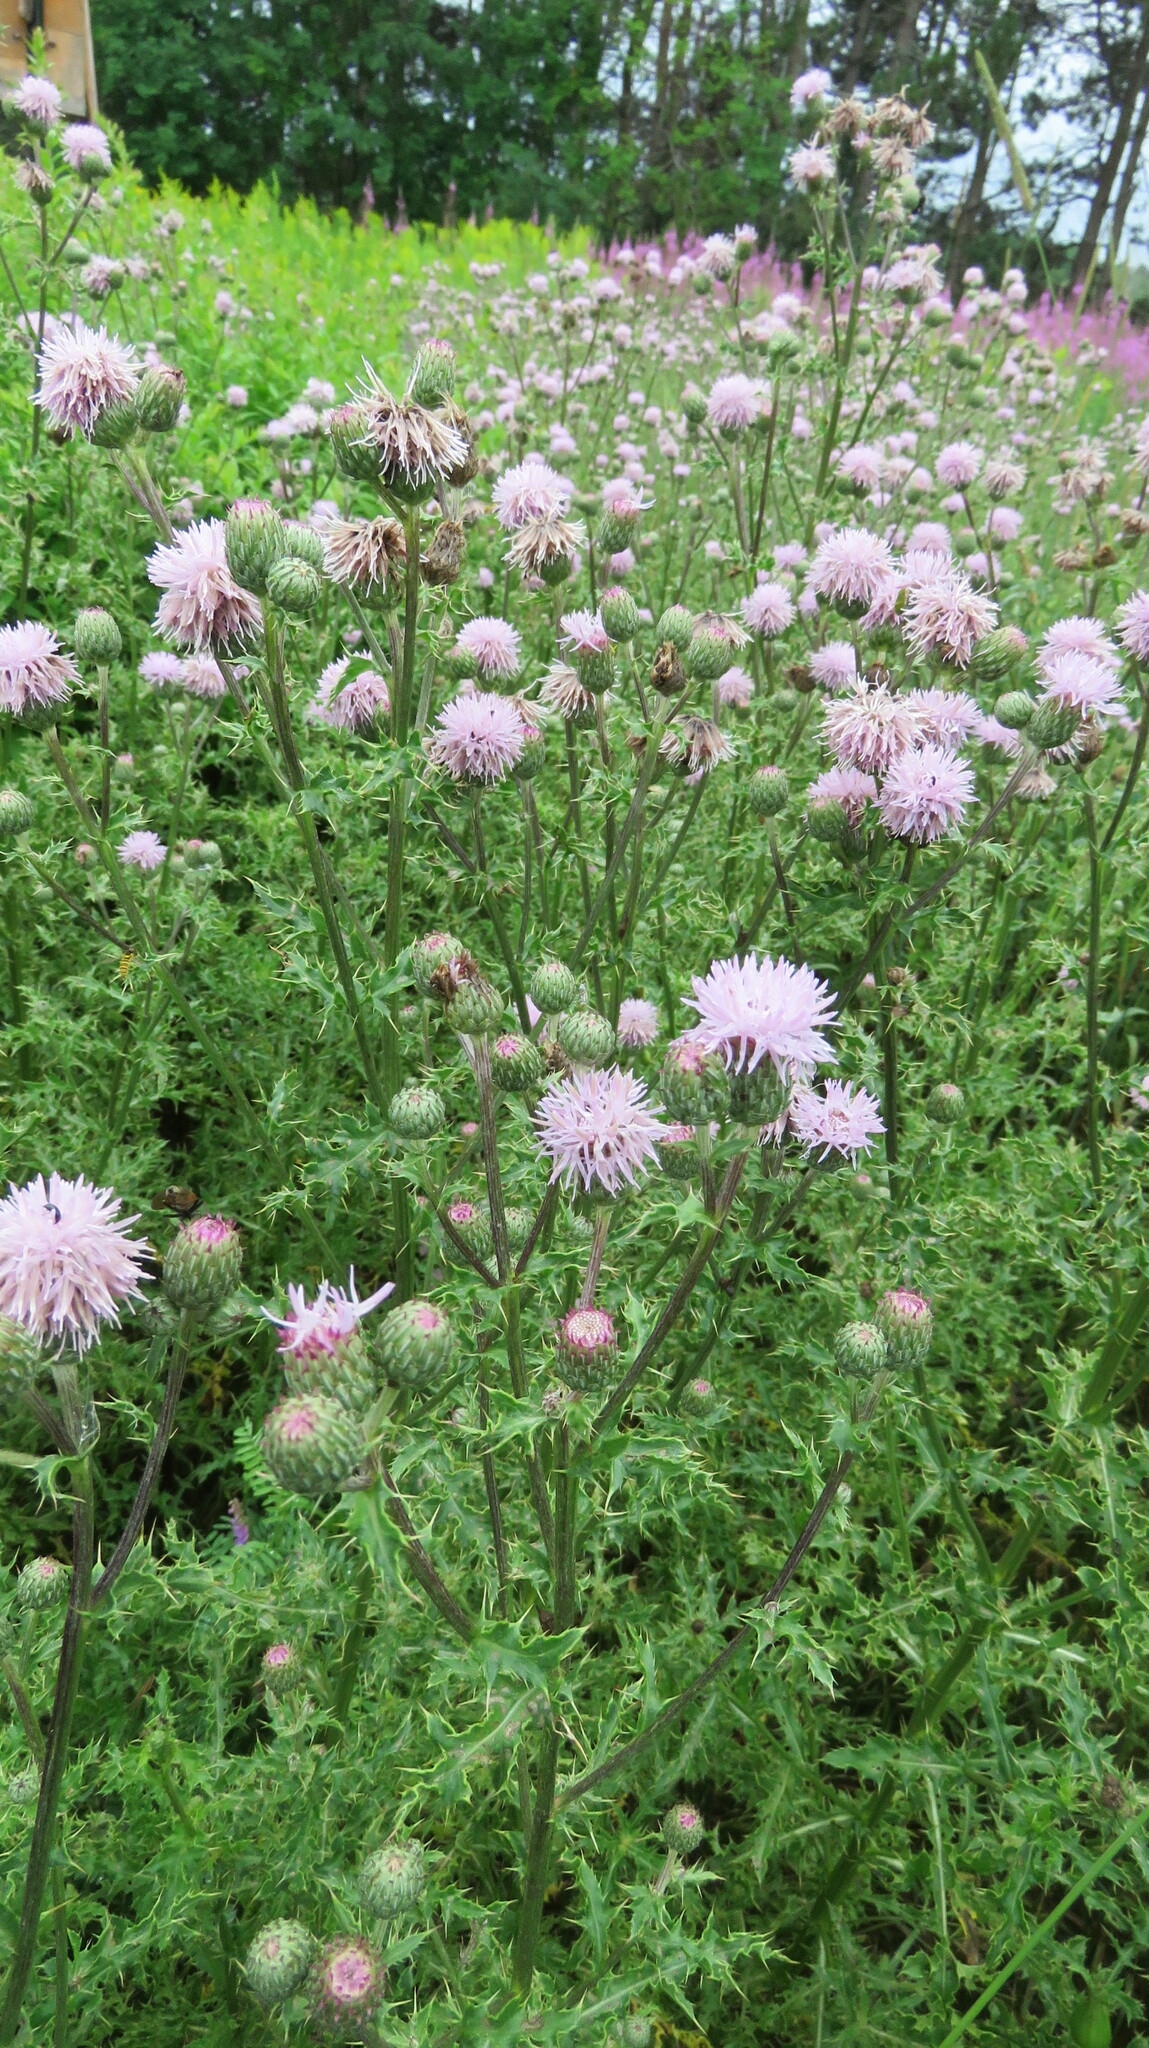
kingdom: Plantae
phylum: Tracheophyta
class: Magnoliopsida
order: Asterales
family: Asteraceae
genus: Cirsium
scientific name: Cirsium arvense
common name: Creeping thistle
